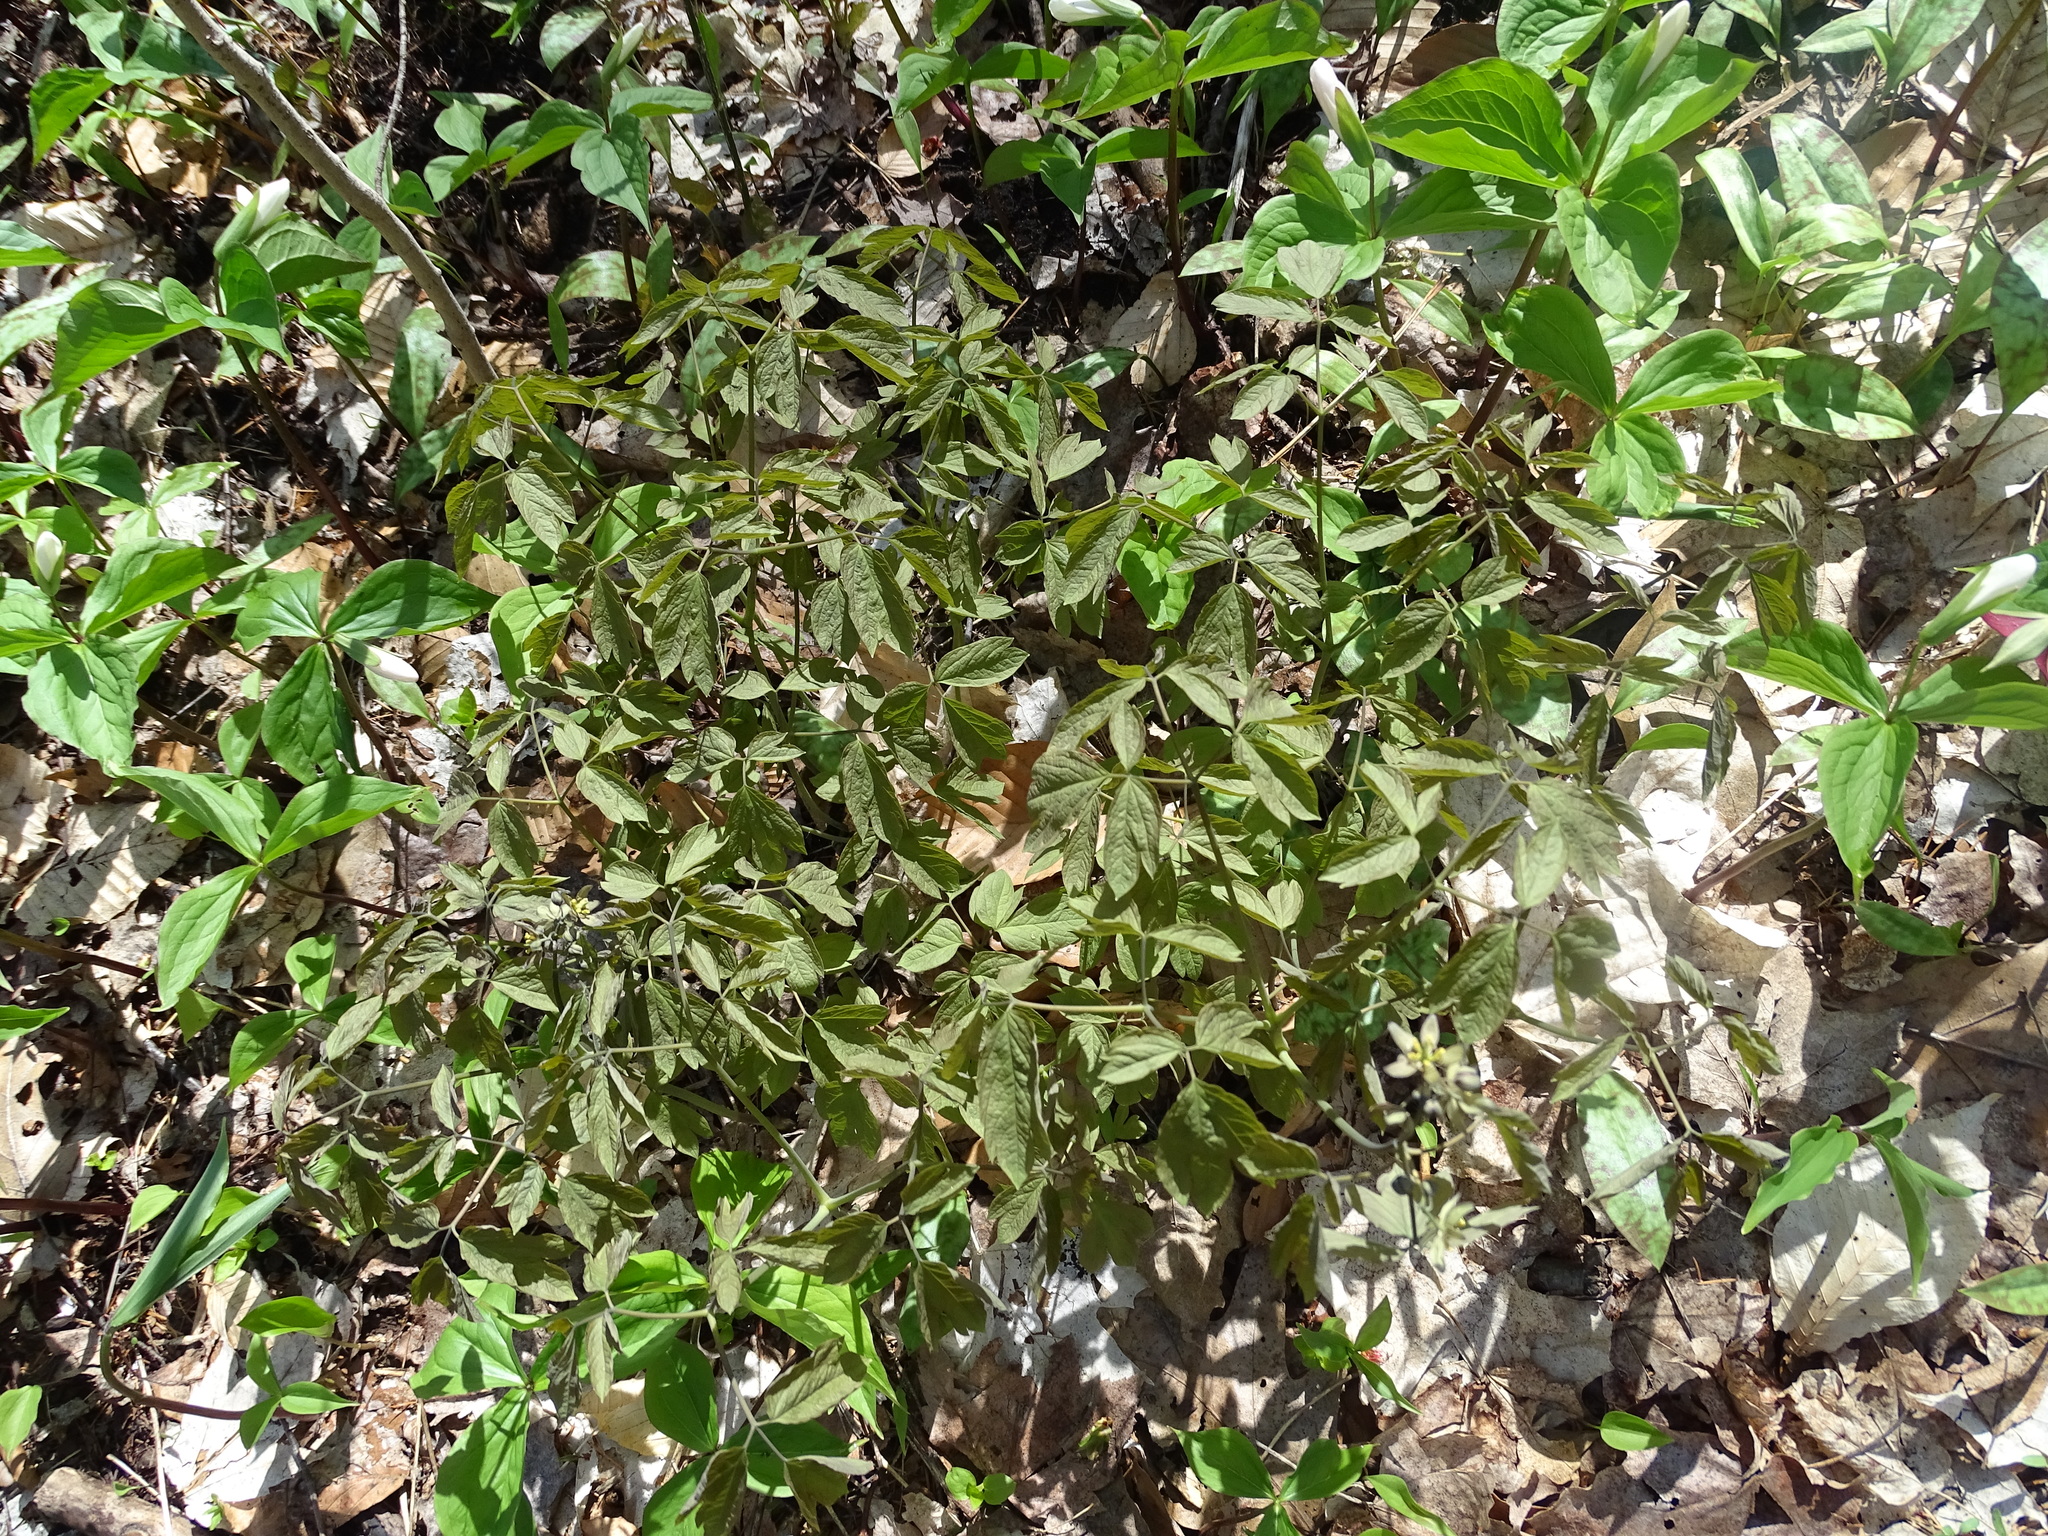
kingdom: Plantae
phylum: Tracheophyta
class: Magnoliopsida
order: Ranunculales
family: Berberidaceae
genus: Caulophyllum
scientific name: Caulophyllum giganteum
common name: Blue cohosh
